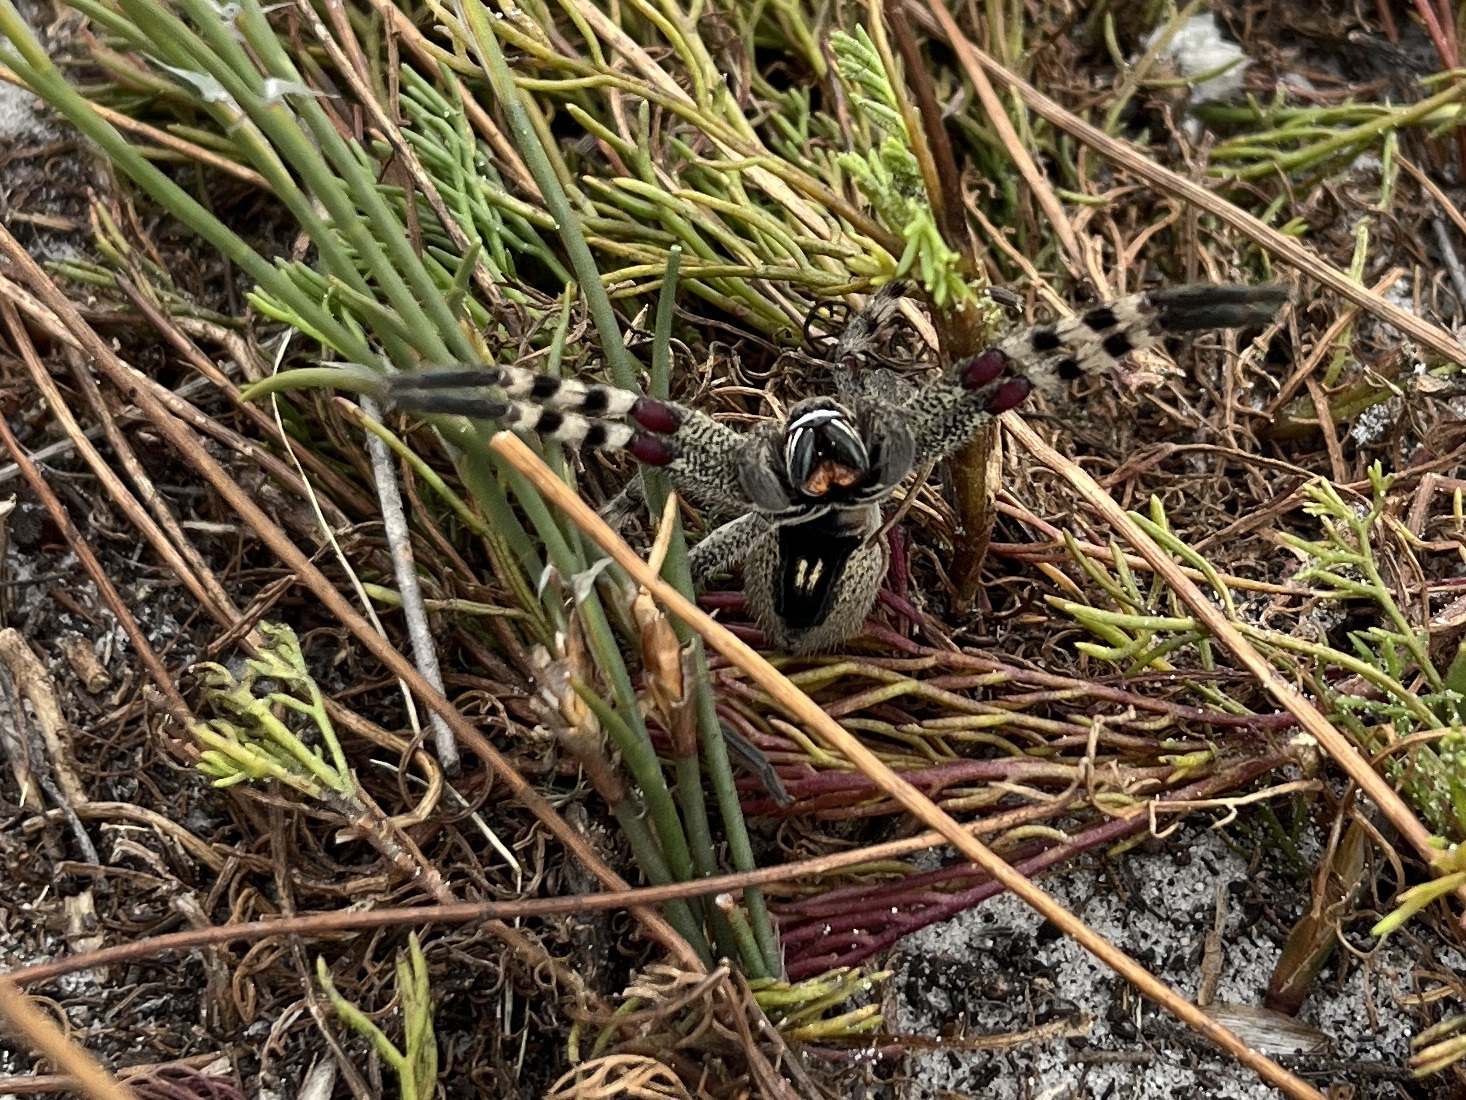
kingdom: Animalia
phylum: Arthropoda
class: Arachnida
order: Araneae
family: Sparassidae
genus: Palystes
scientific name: Palystes castaneus
